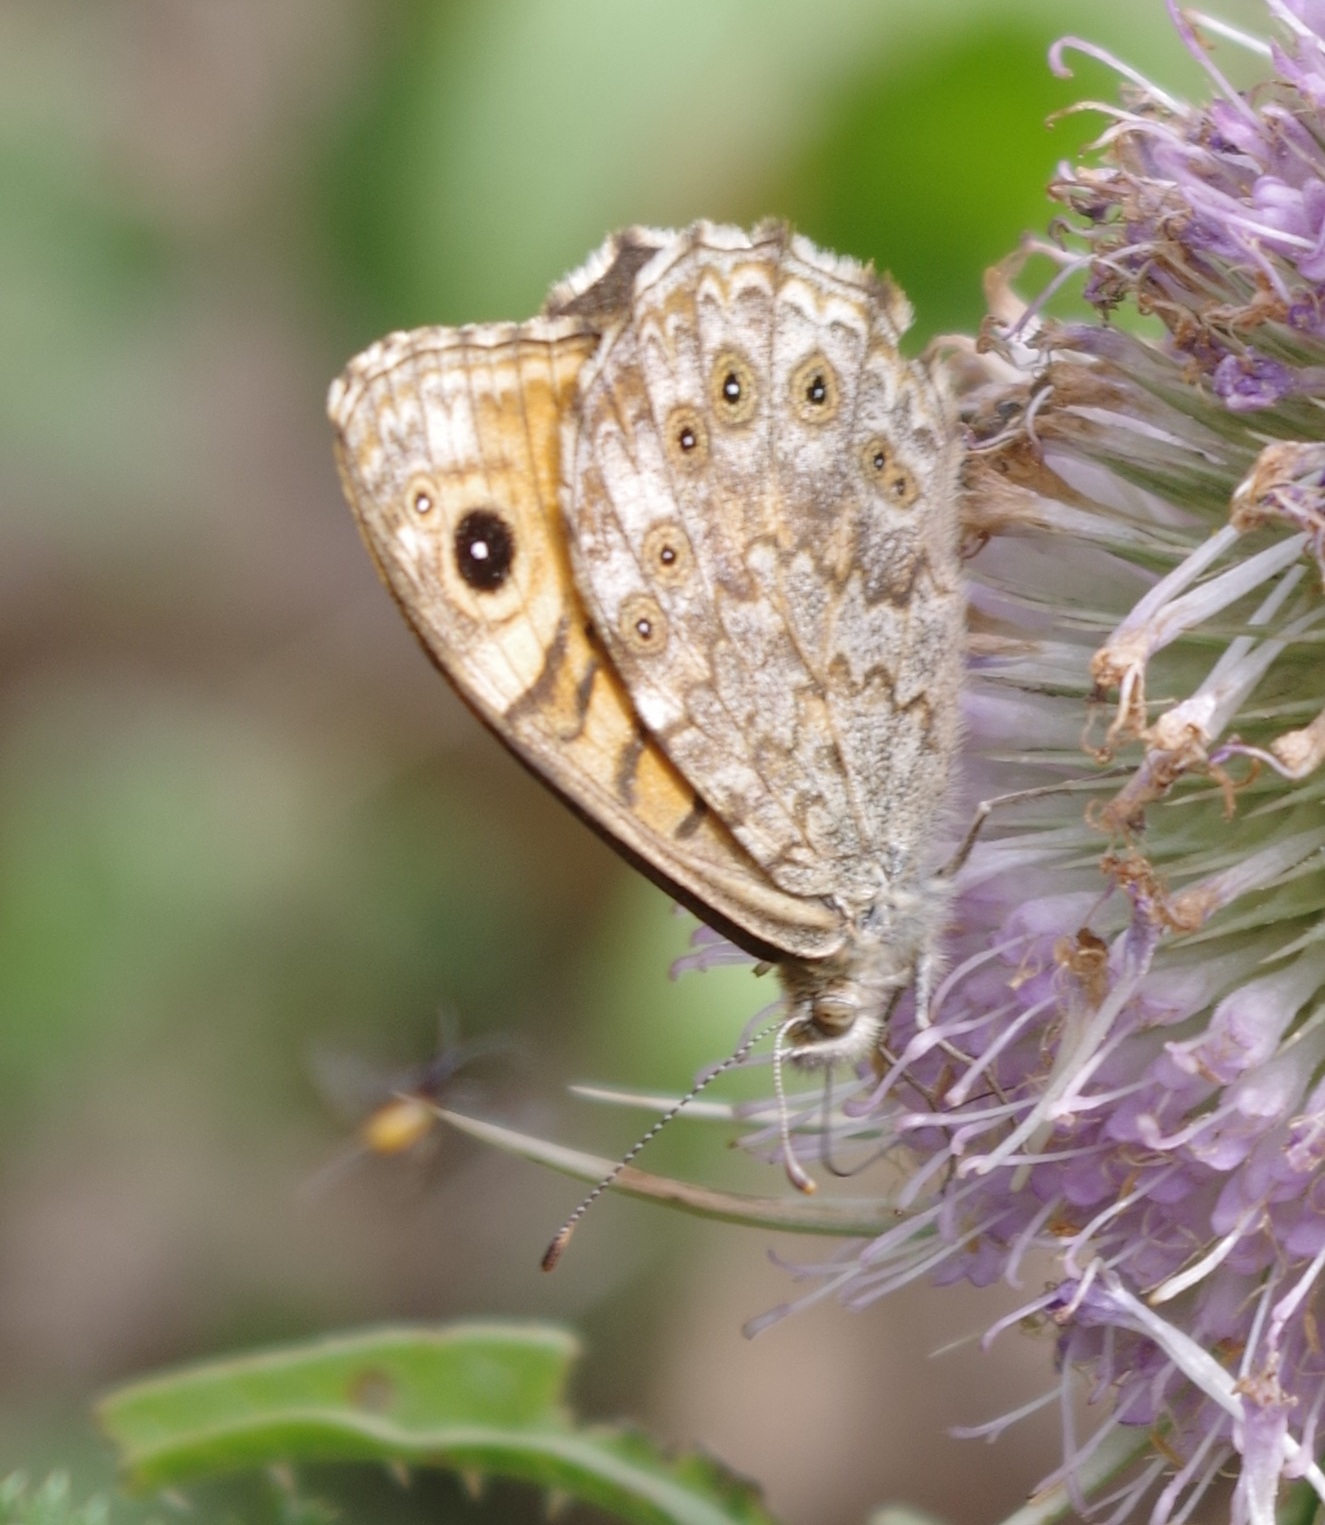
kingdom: Animalia
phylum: Arthropoda
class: Insecta
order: Lepidoptera
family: Nymphalidae
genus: Pararge
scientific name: Pararge Lasiommata megera
